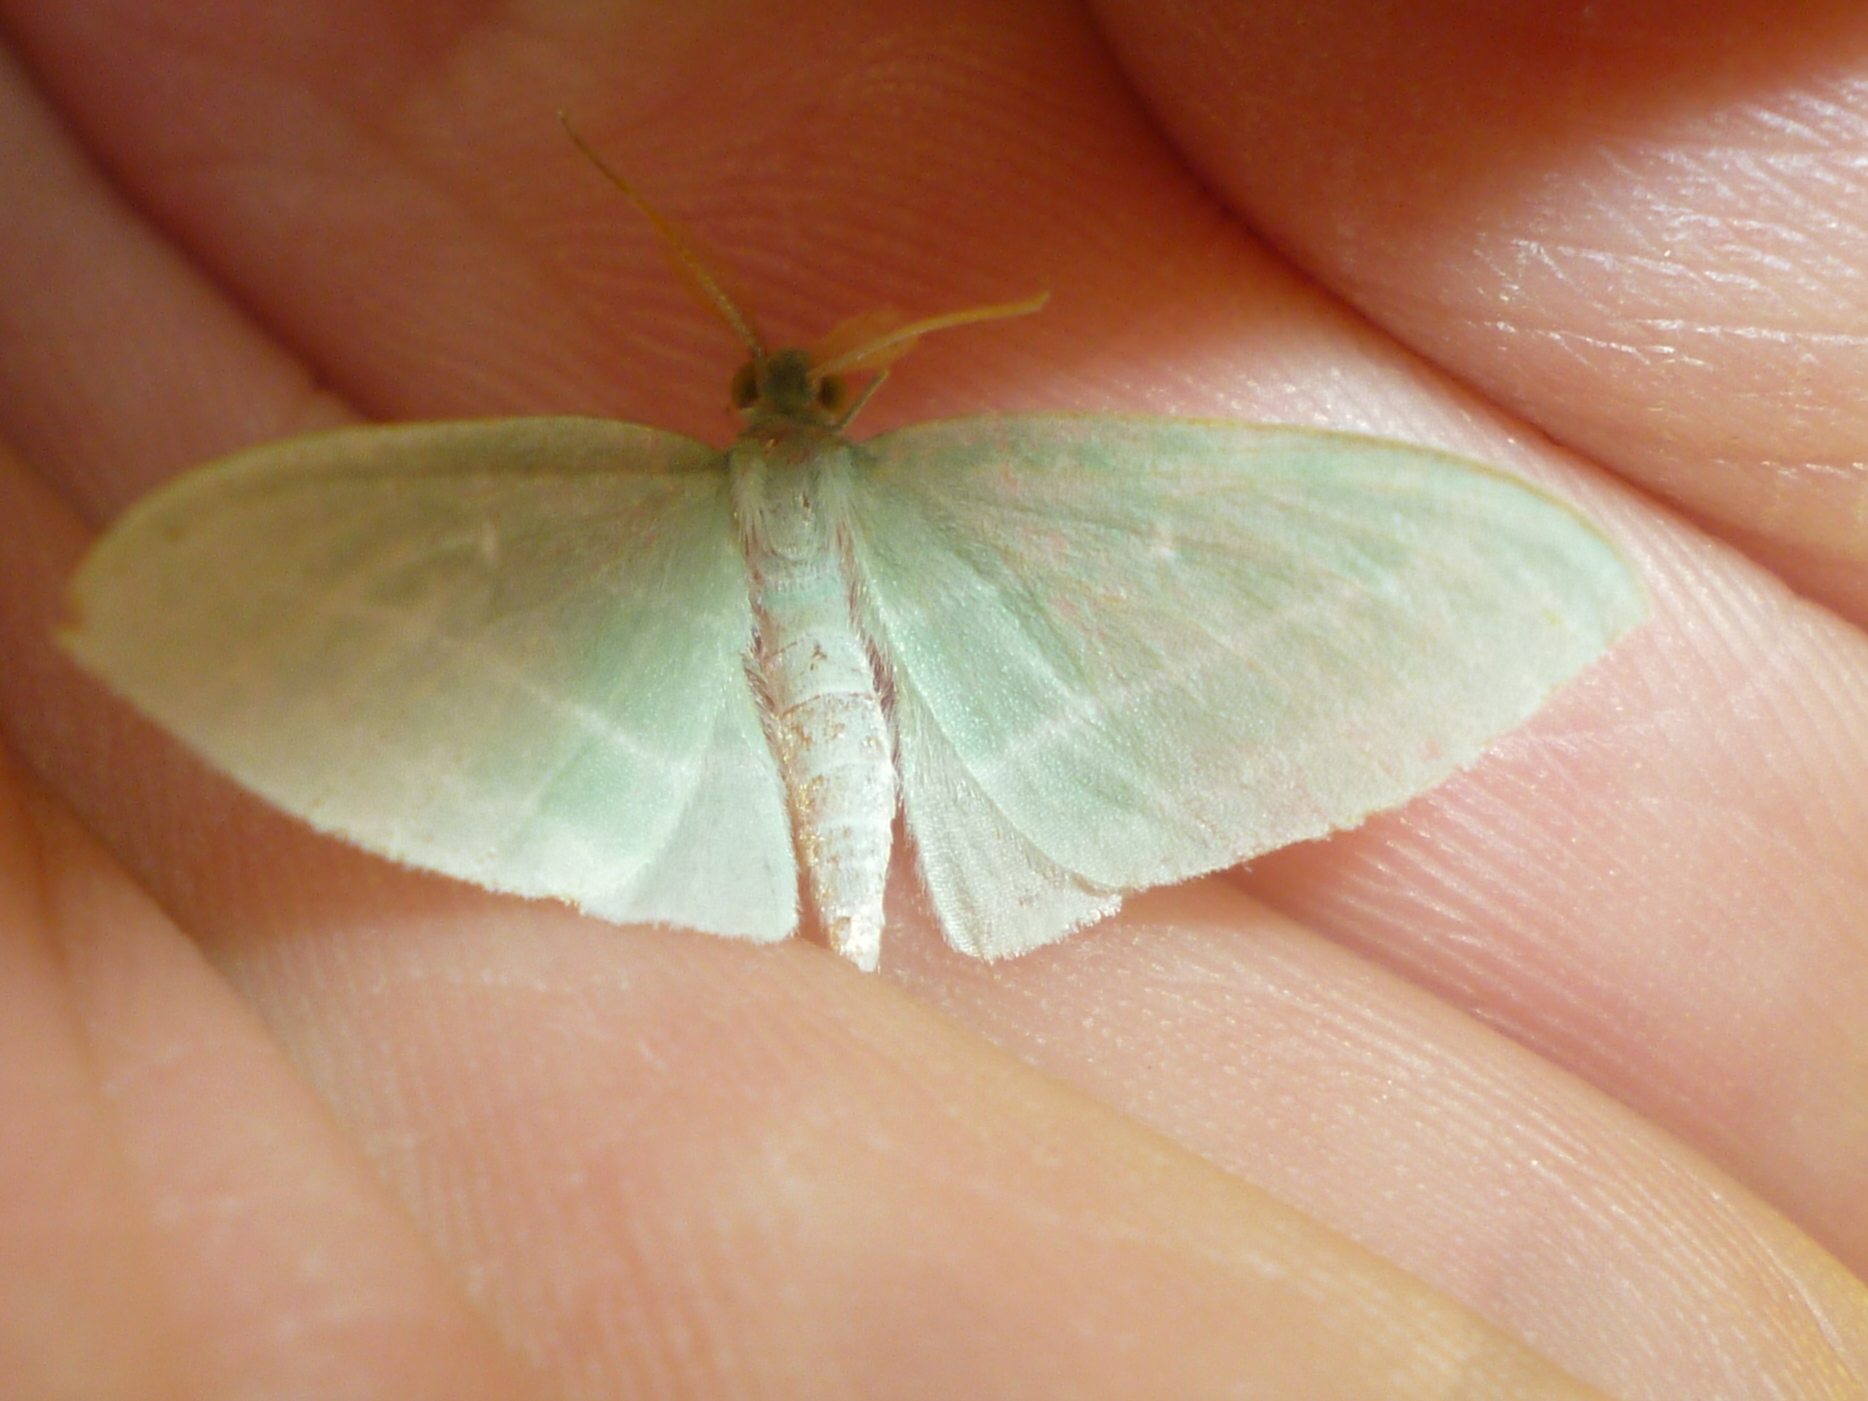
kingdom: Animalia
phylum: Arthropoda
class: Insecta
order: Lepidoptera
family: Geometridae
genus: Dyspteris
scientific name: Dyspteris abortivaria
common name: Bad-wing
